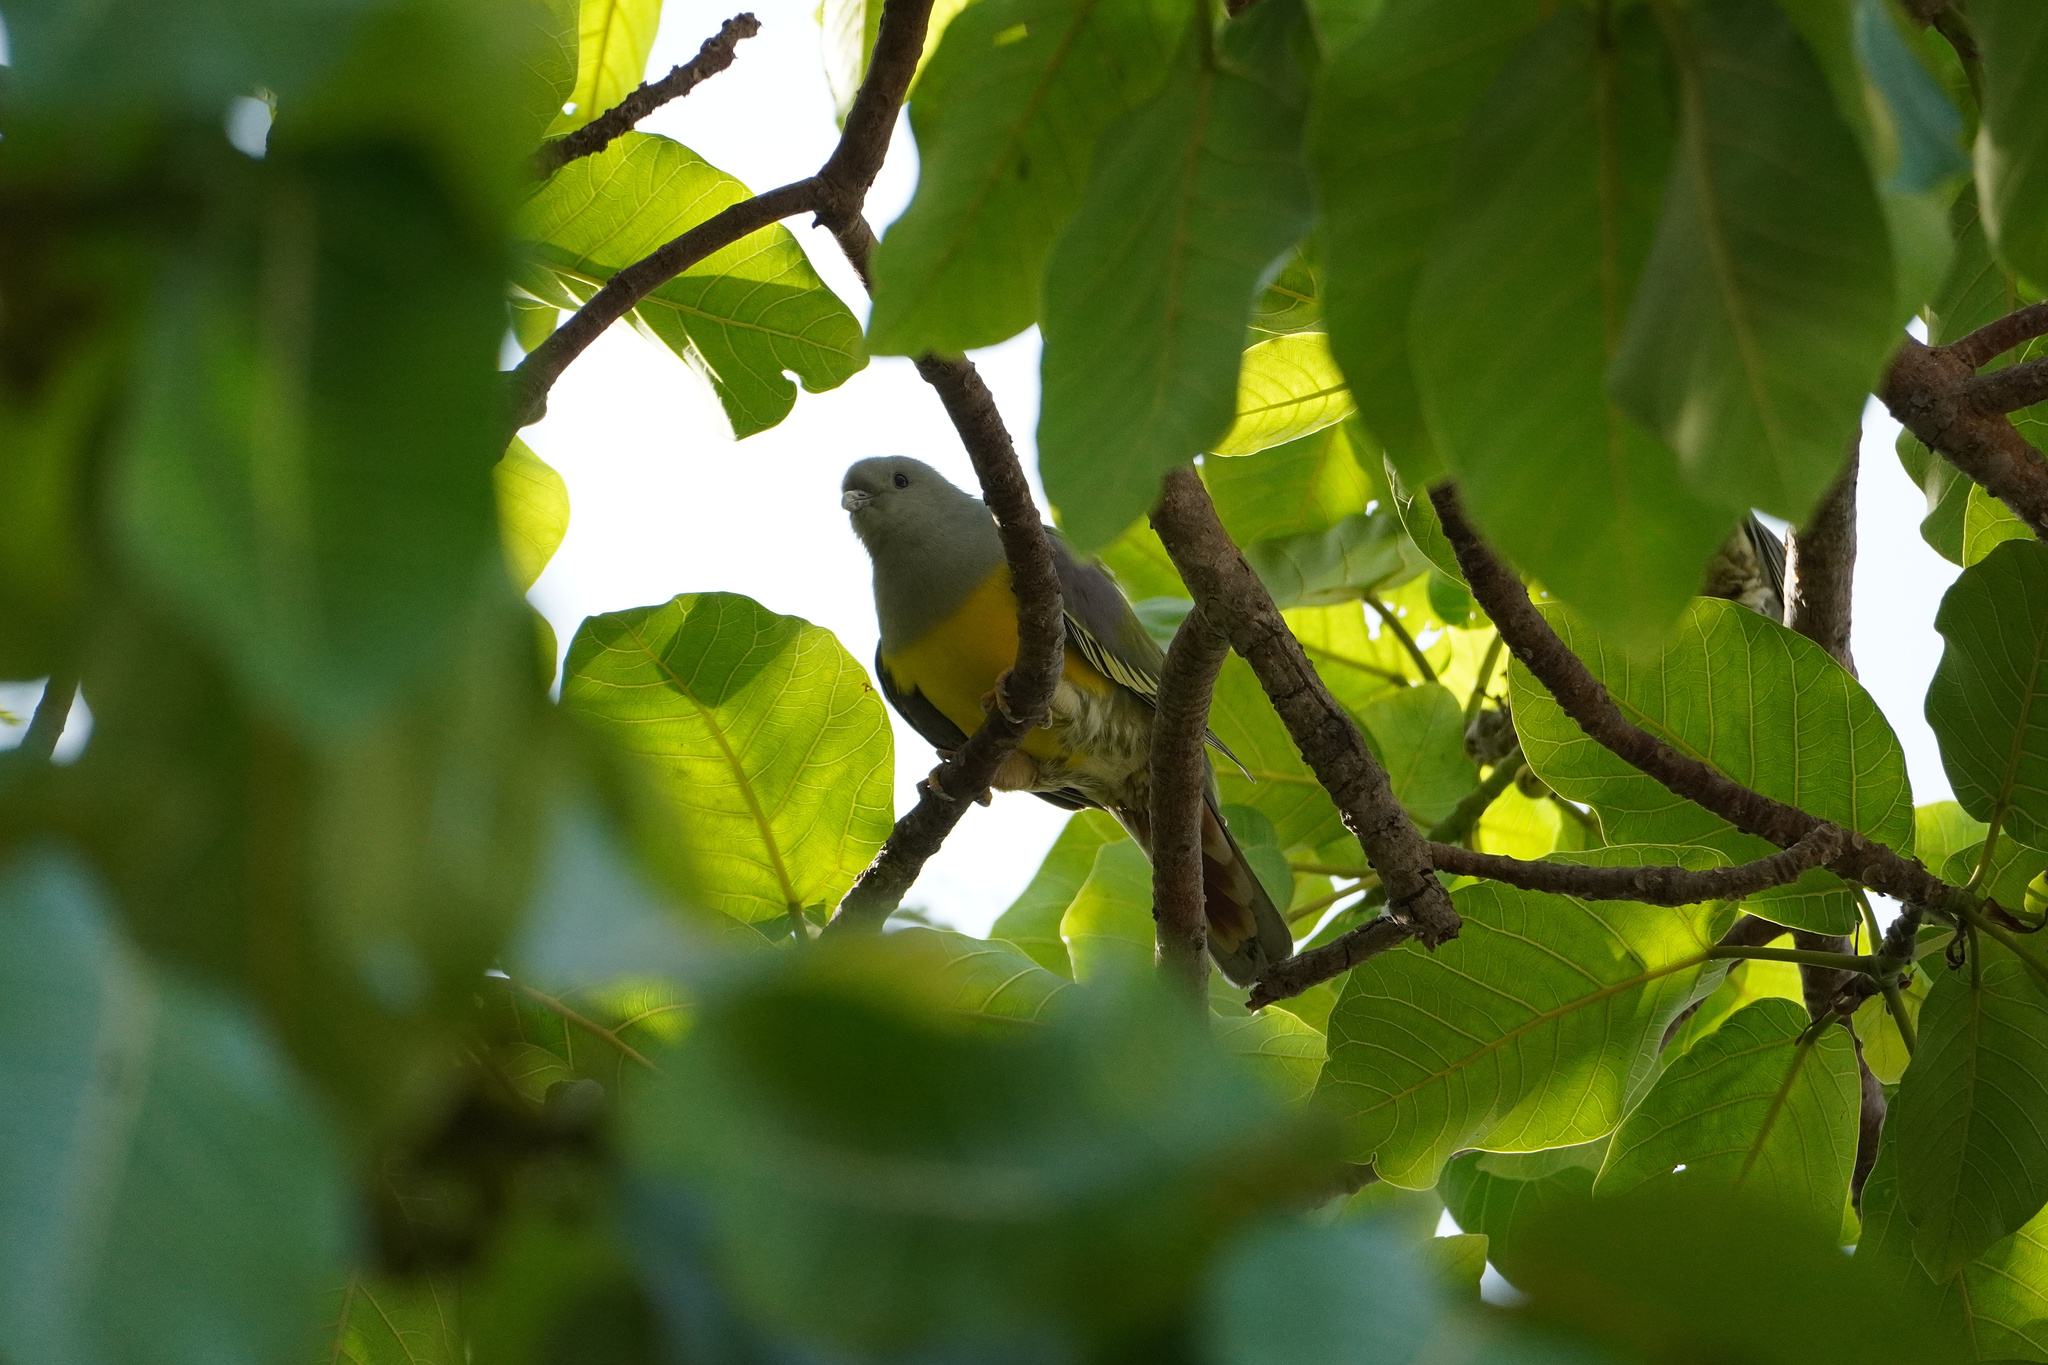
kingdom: Animalia
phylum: Chordata
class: Aves
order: Columbiformes
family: Columbidae
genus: Treron
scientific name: Treron waalia
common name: Bruce's green pigeon
